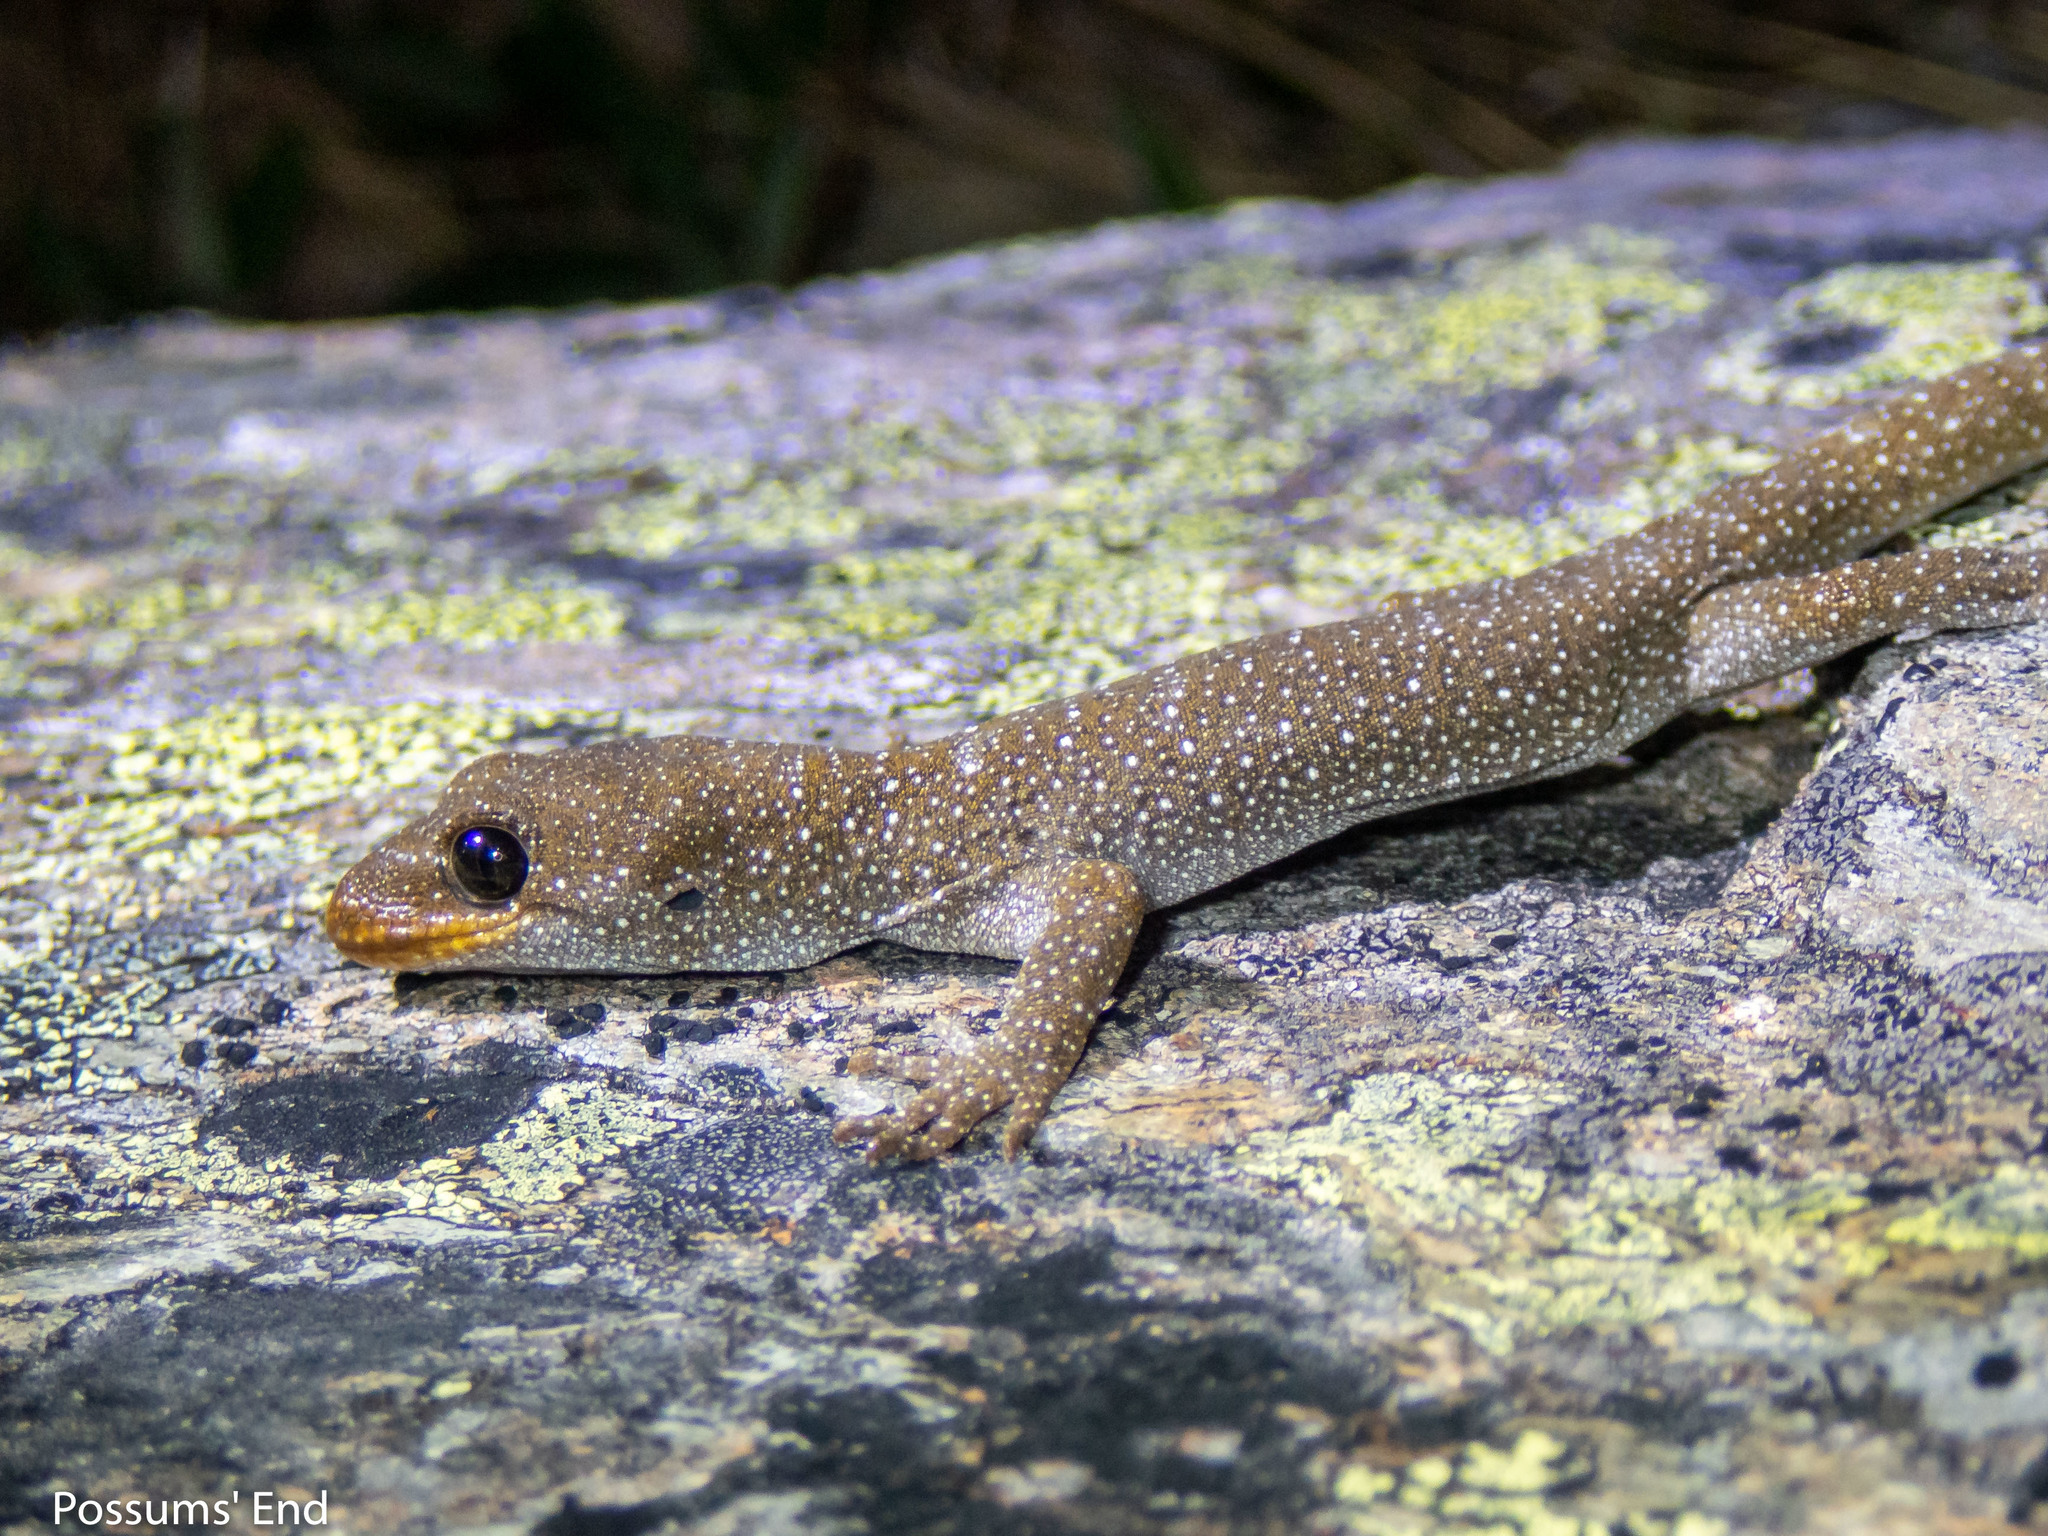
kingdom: Animalia
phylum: Chordata
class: Squamata
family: Diplodactylidae
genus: Mokopirirakau
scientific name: Mokopirirakau galaxias
